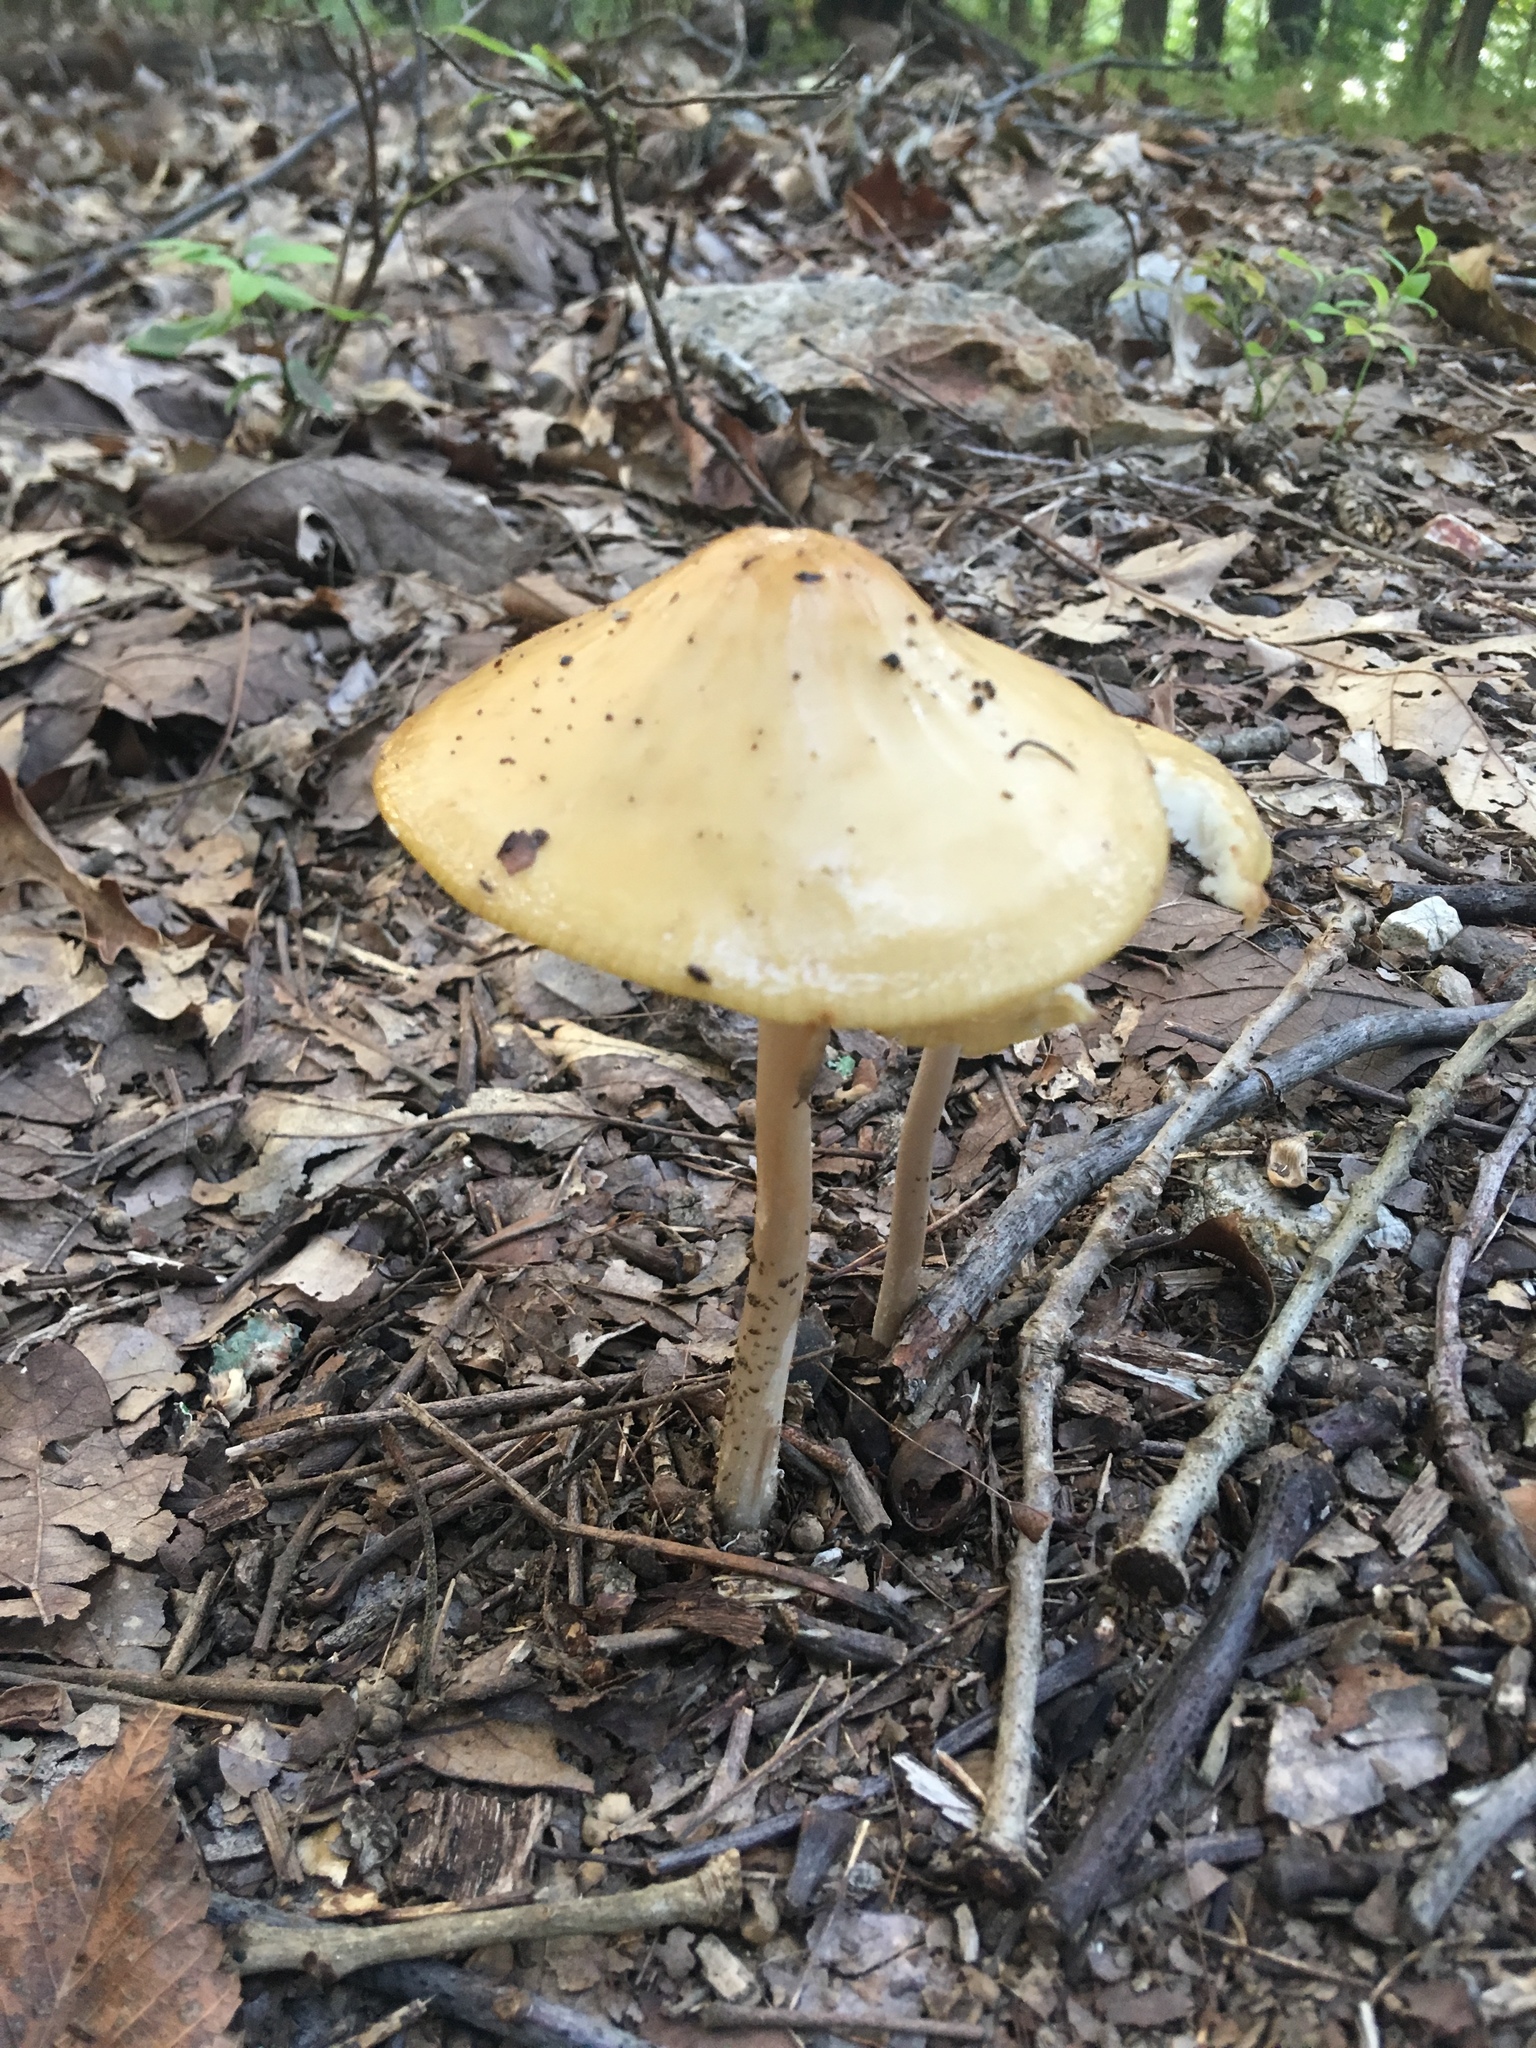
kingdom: Fungi
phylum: Basidiomycota
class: Agaricomycetes
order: Agaricales
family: Physalacriaceae
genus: Hymenopellis
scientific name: Hymenopellis furfuracea
